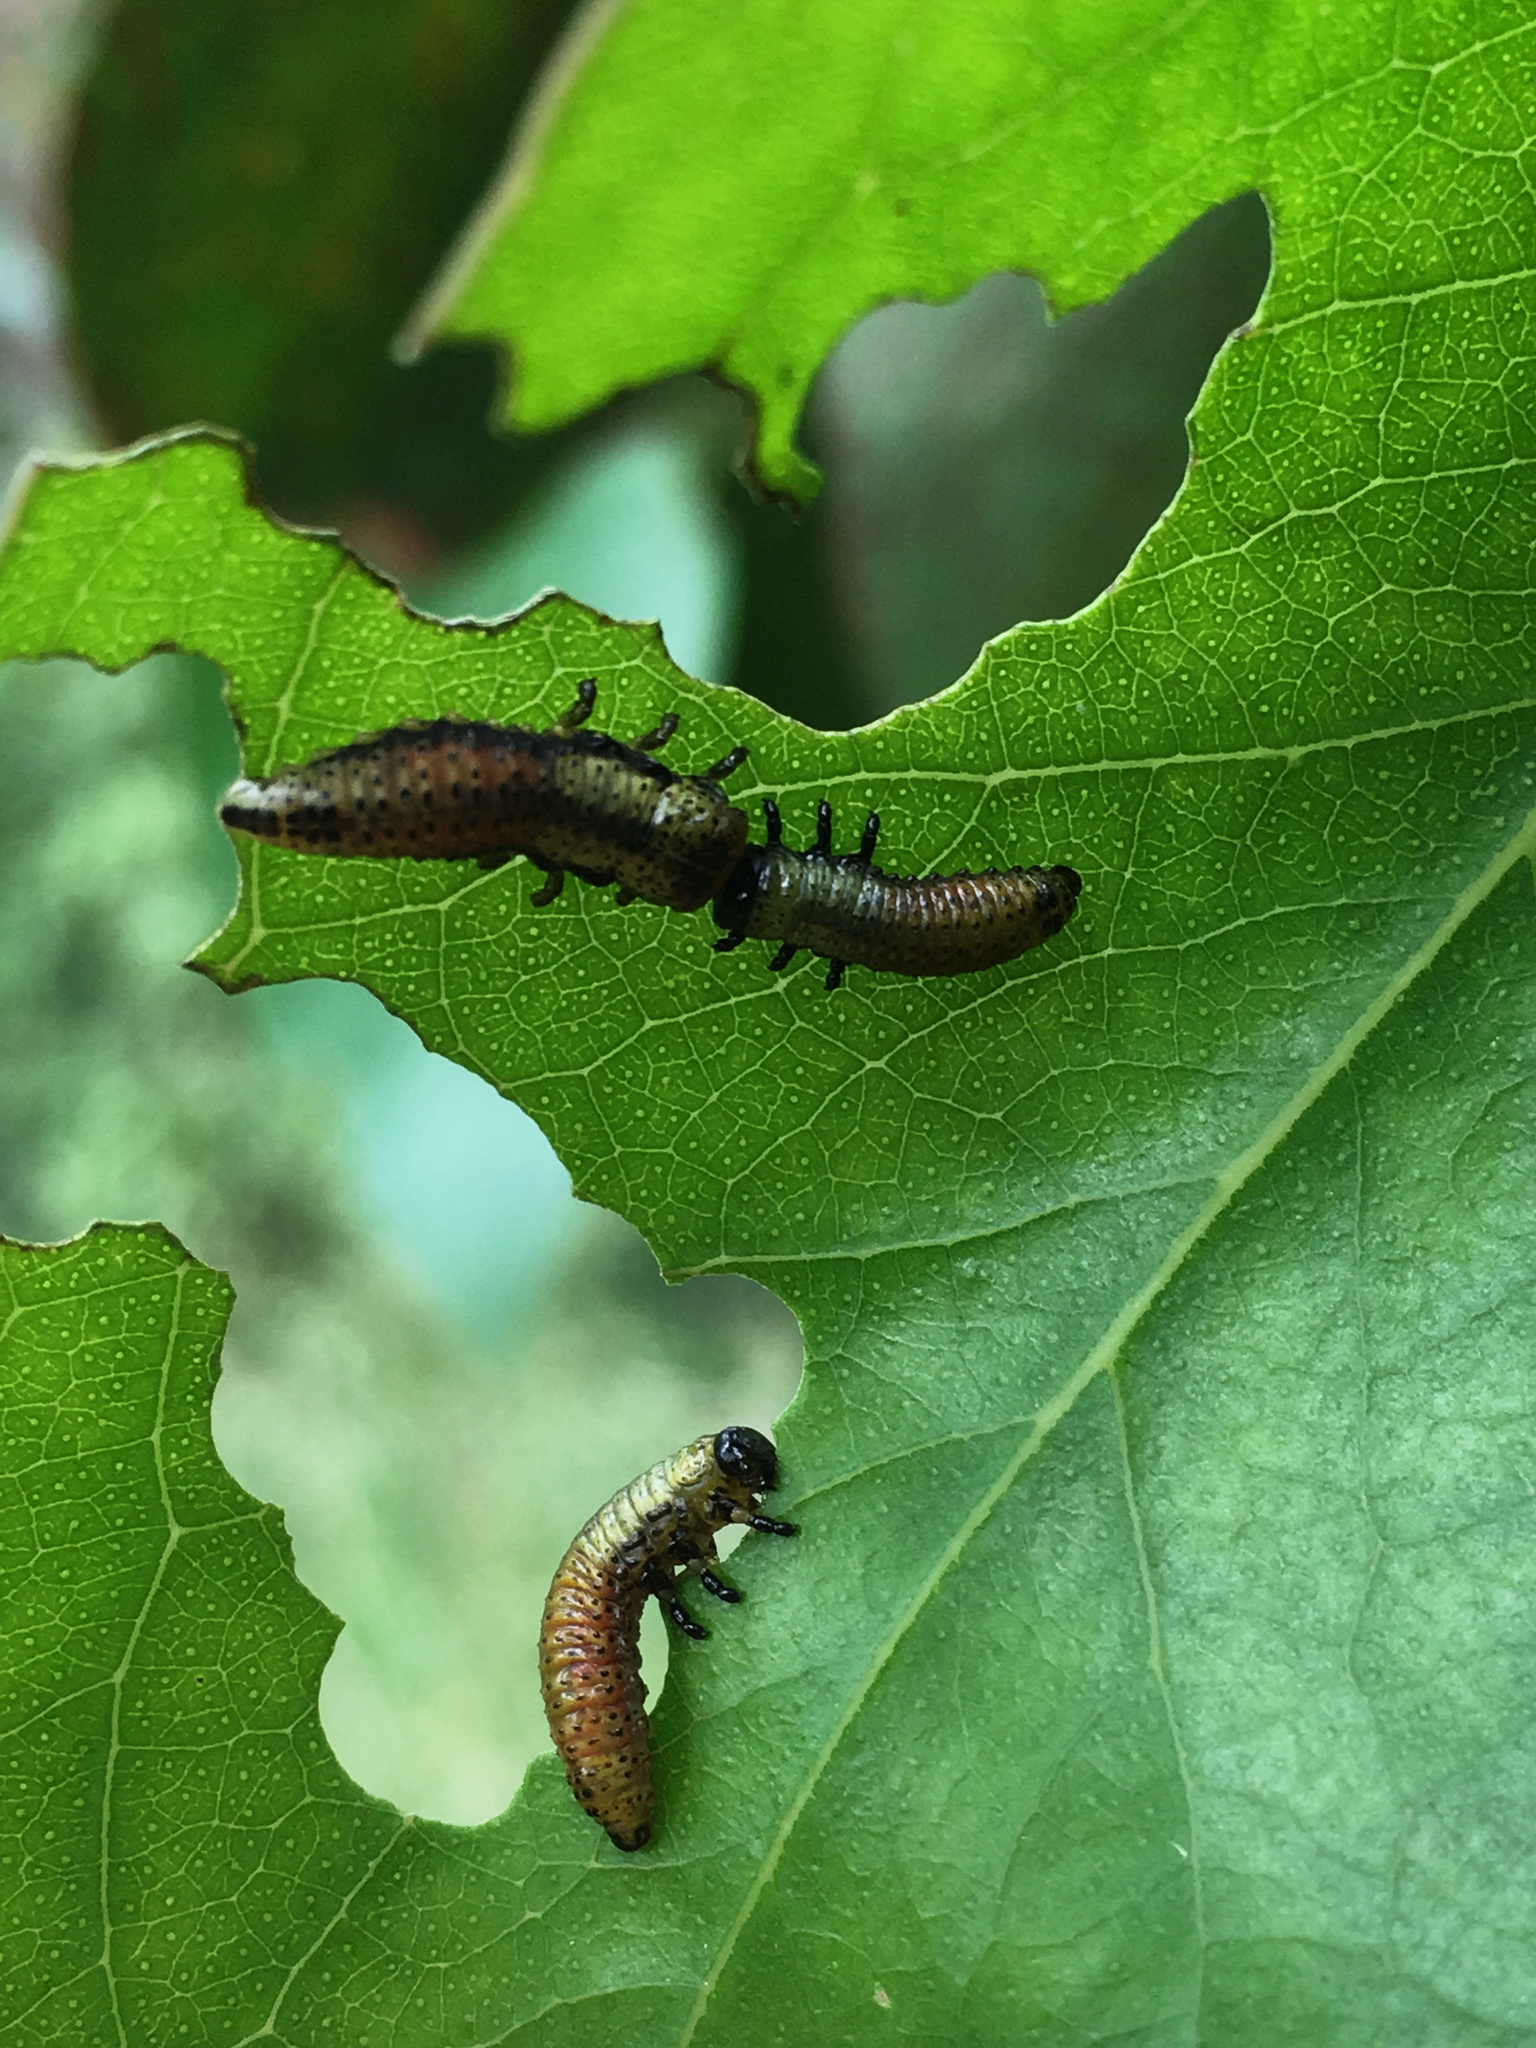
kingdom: Animalia
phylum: Arthropoda
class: Insecta
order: Coleoptera
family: Chrysomelidae
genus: Paropsis
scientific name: Paropsis charybdis
